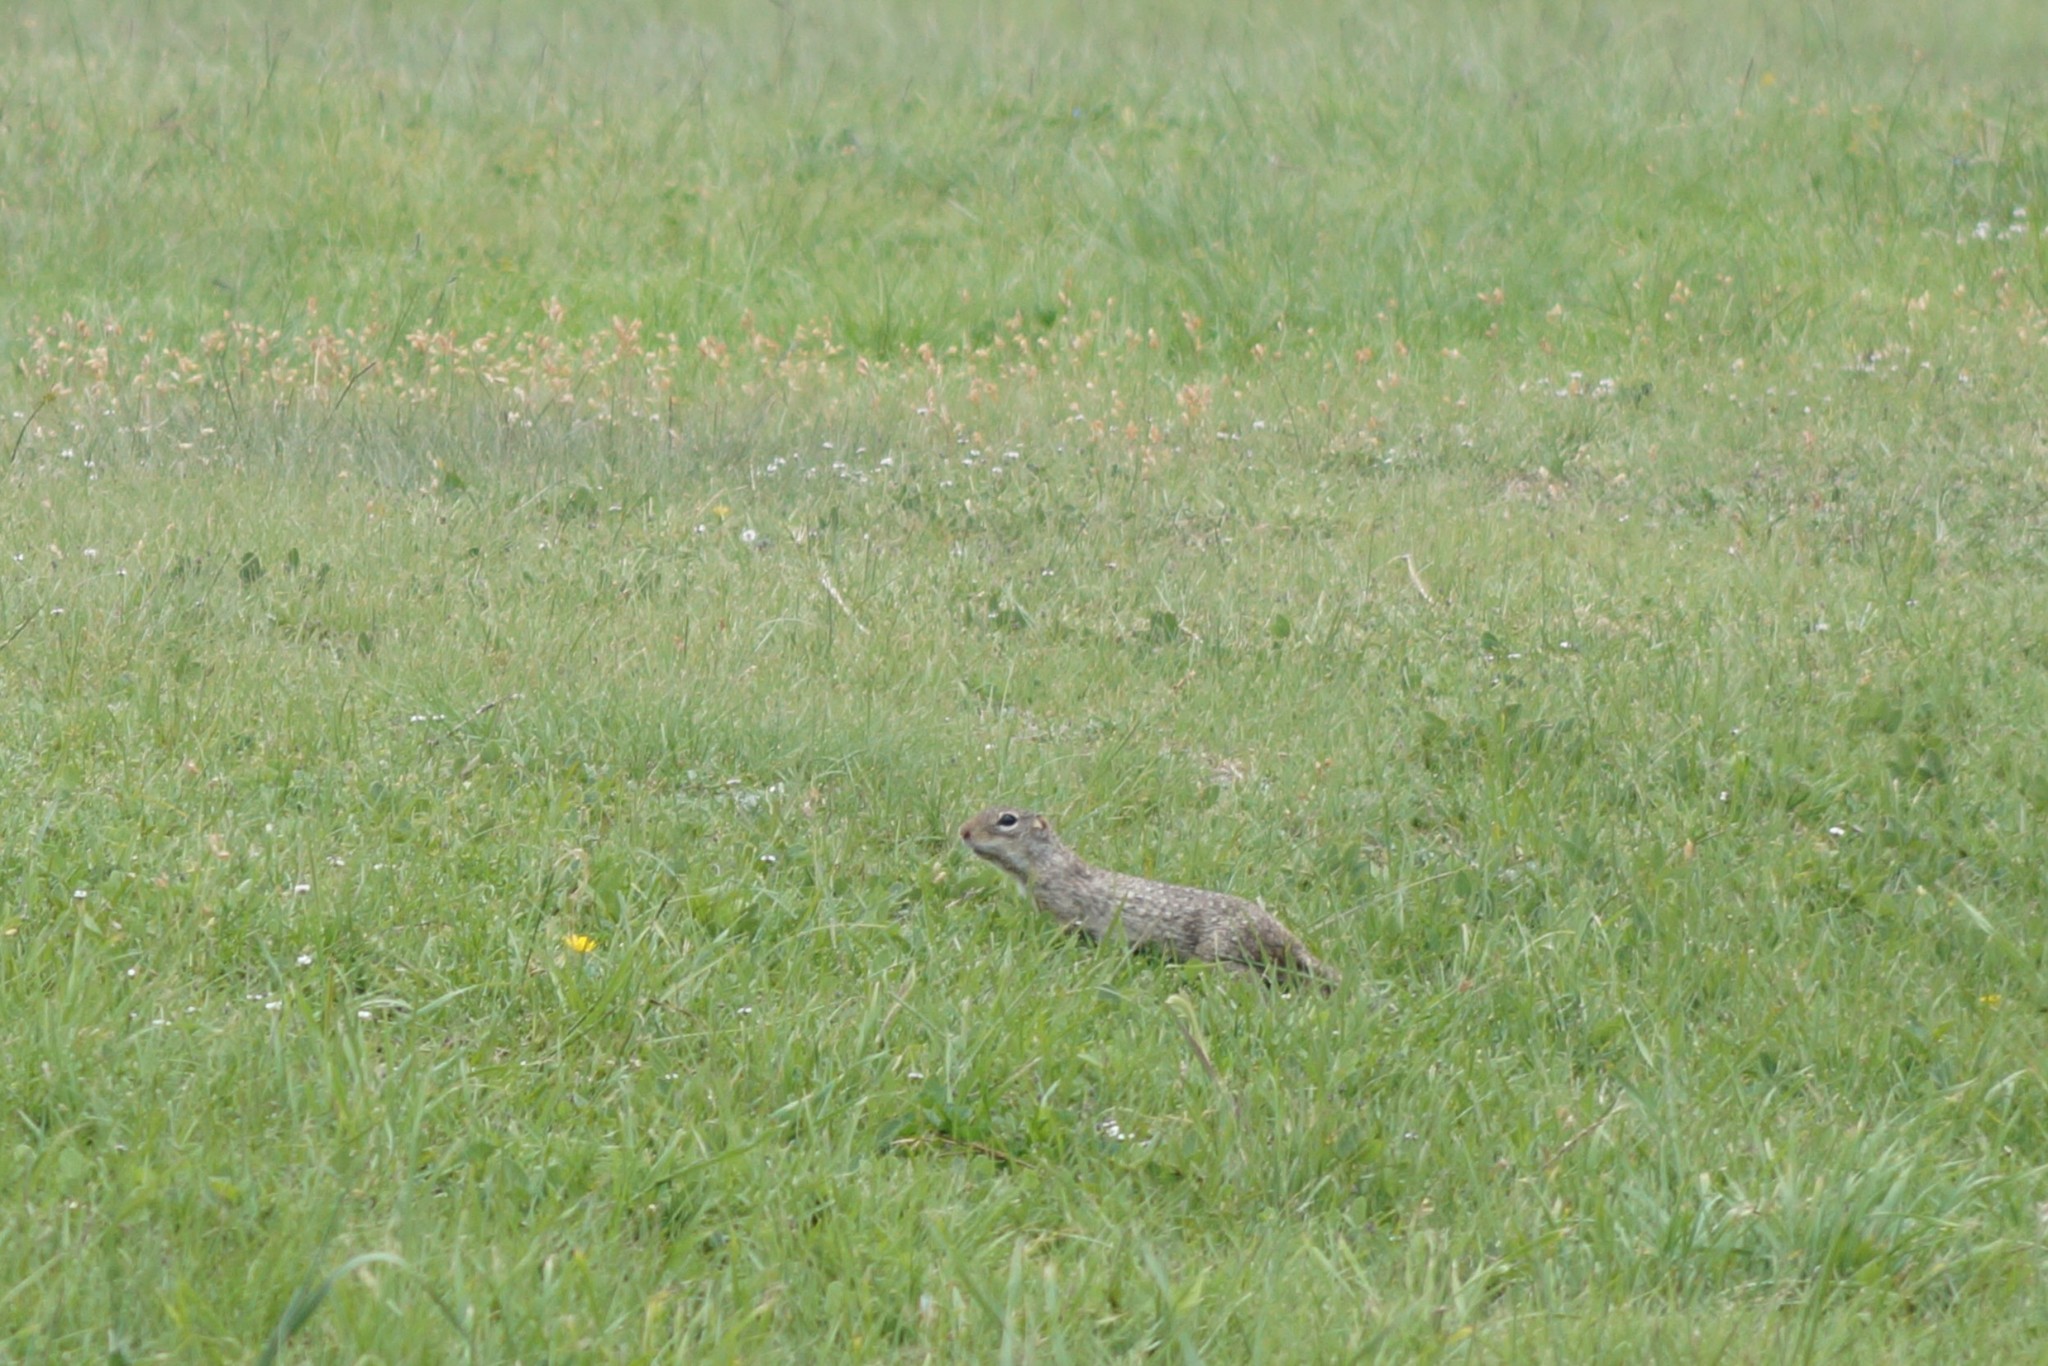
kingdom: Animalia
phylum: Chordata
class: Mammalia
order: Rodentia
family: Sciuridae
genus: Ictidomys
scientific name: Ictidomys mexicanus
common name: Mexican ground squirrel
